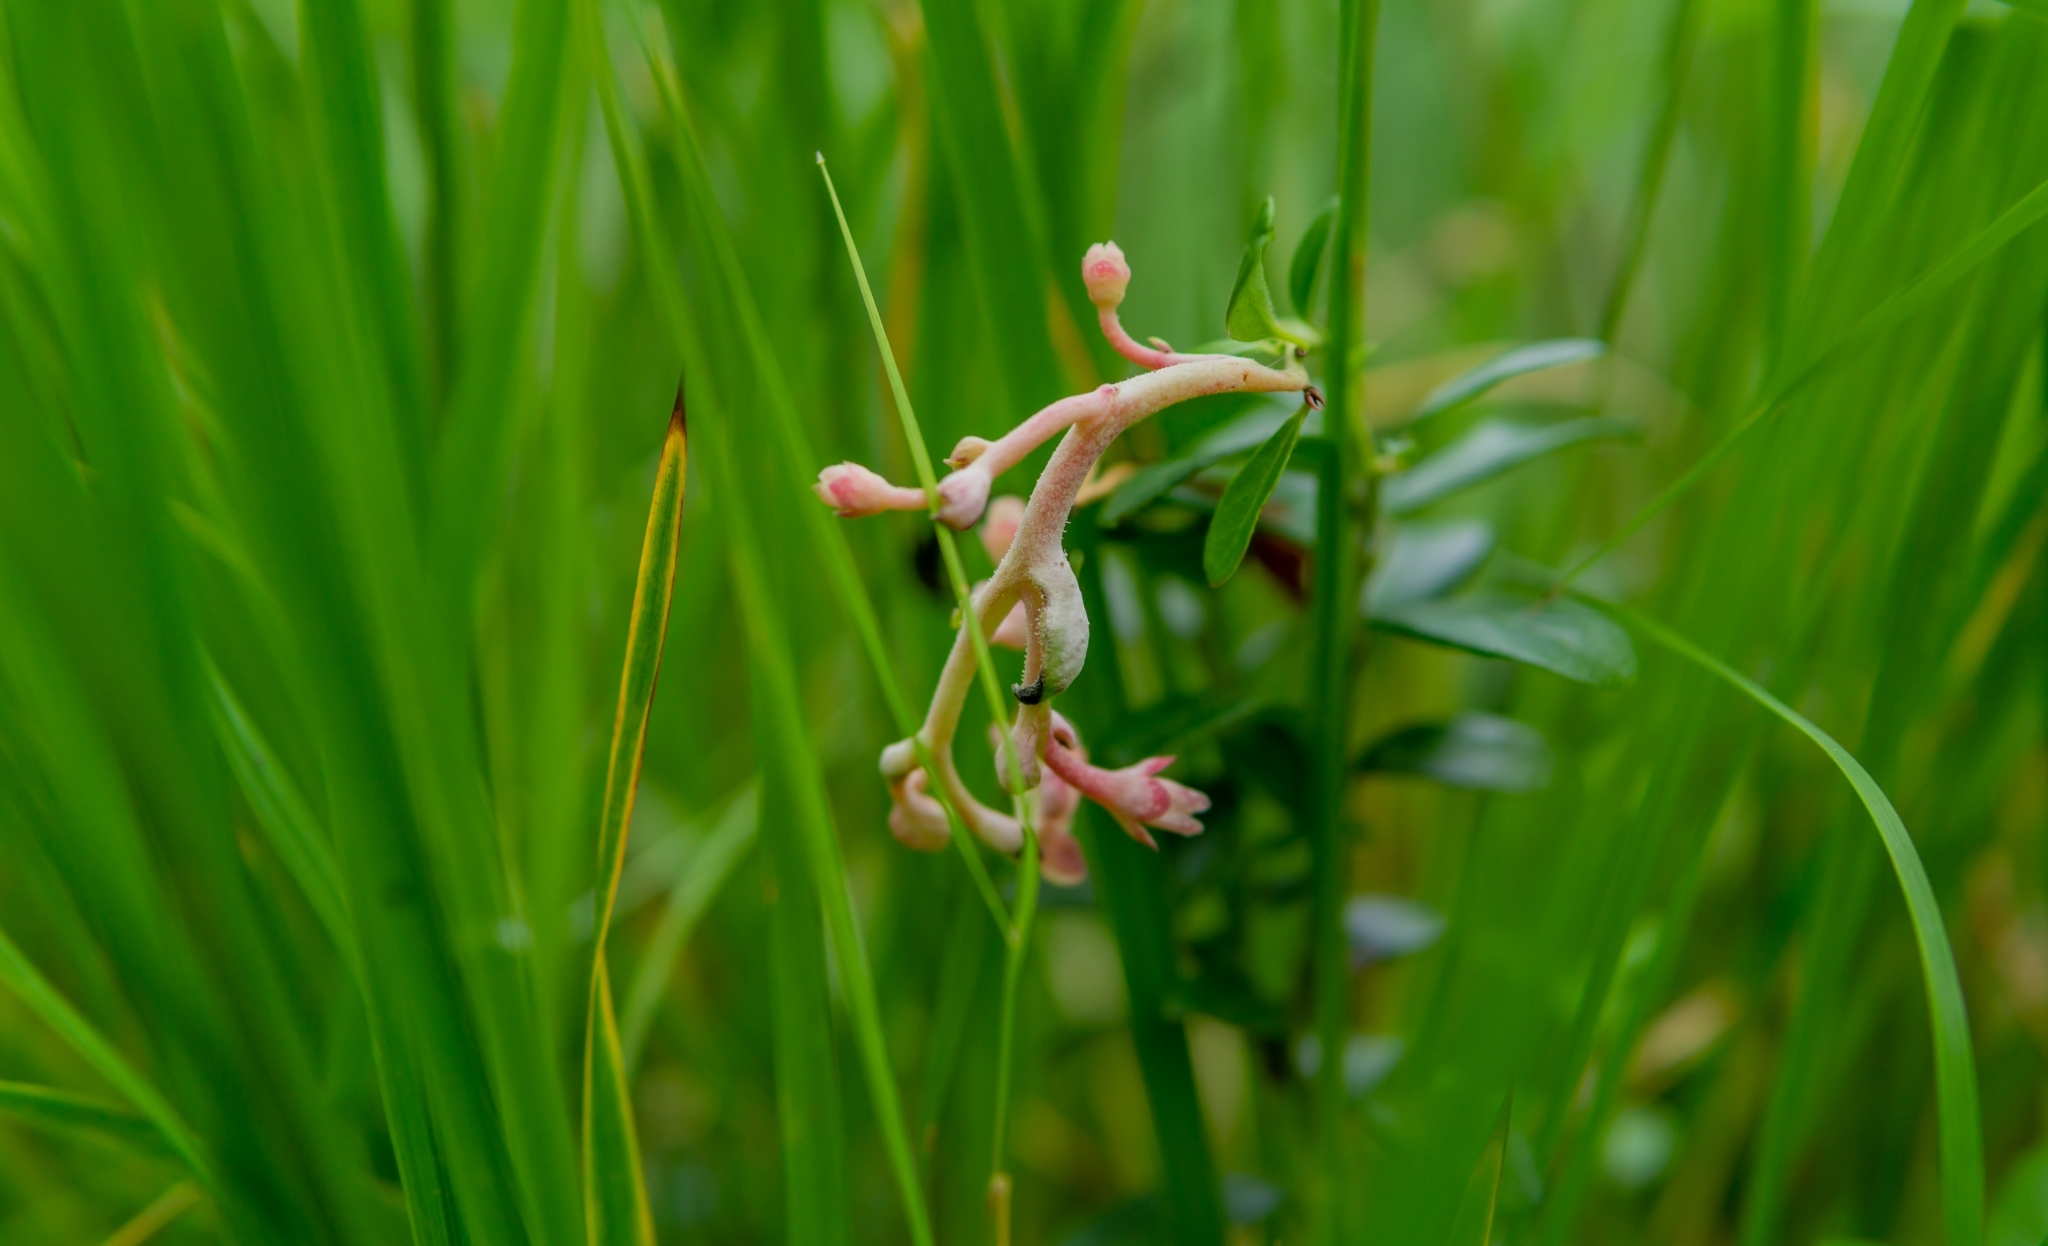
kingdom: Fungi
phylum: Basidiomycota
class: Exobasidiomycetes
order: Exobasidiales
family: Exobasidiaceae
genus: Exobasidium
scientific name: Exobasidium vaccinii
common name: Cowberry redleaf
